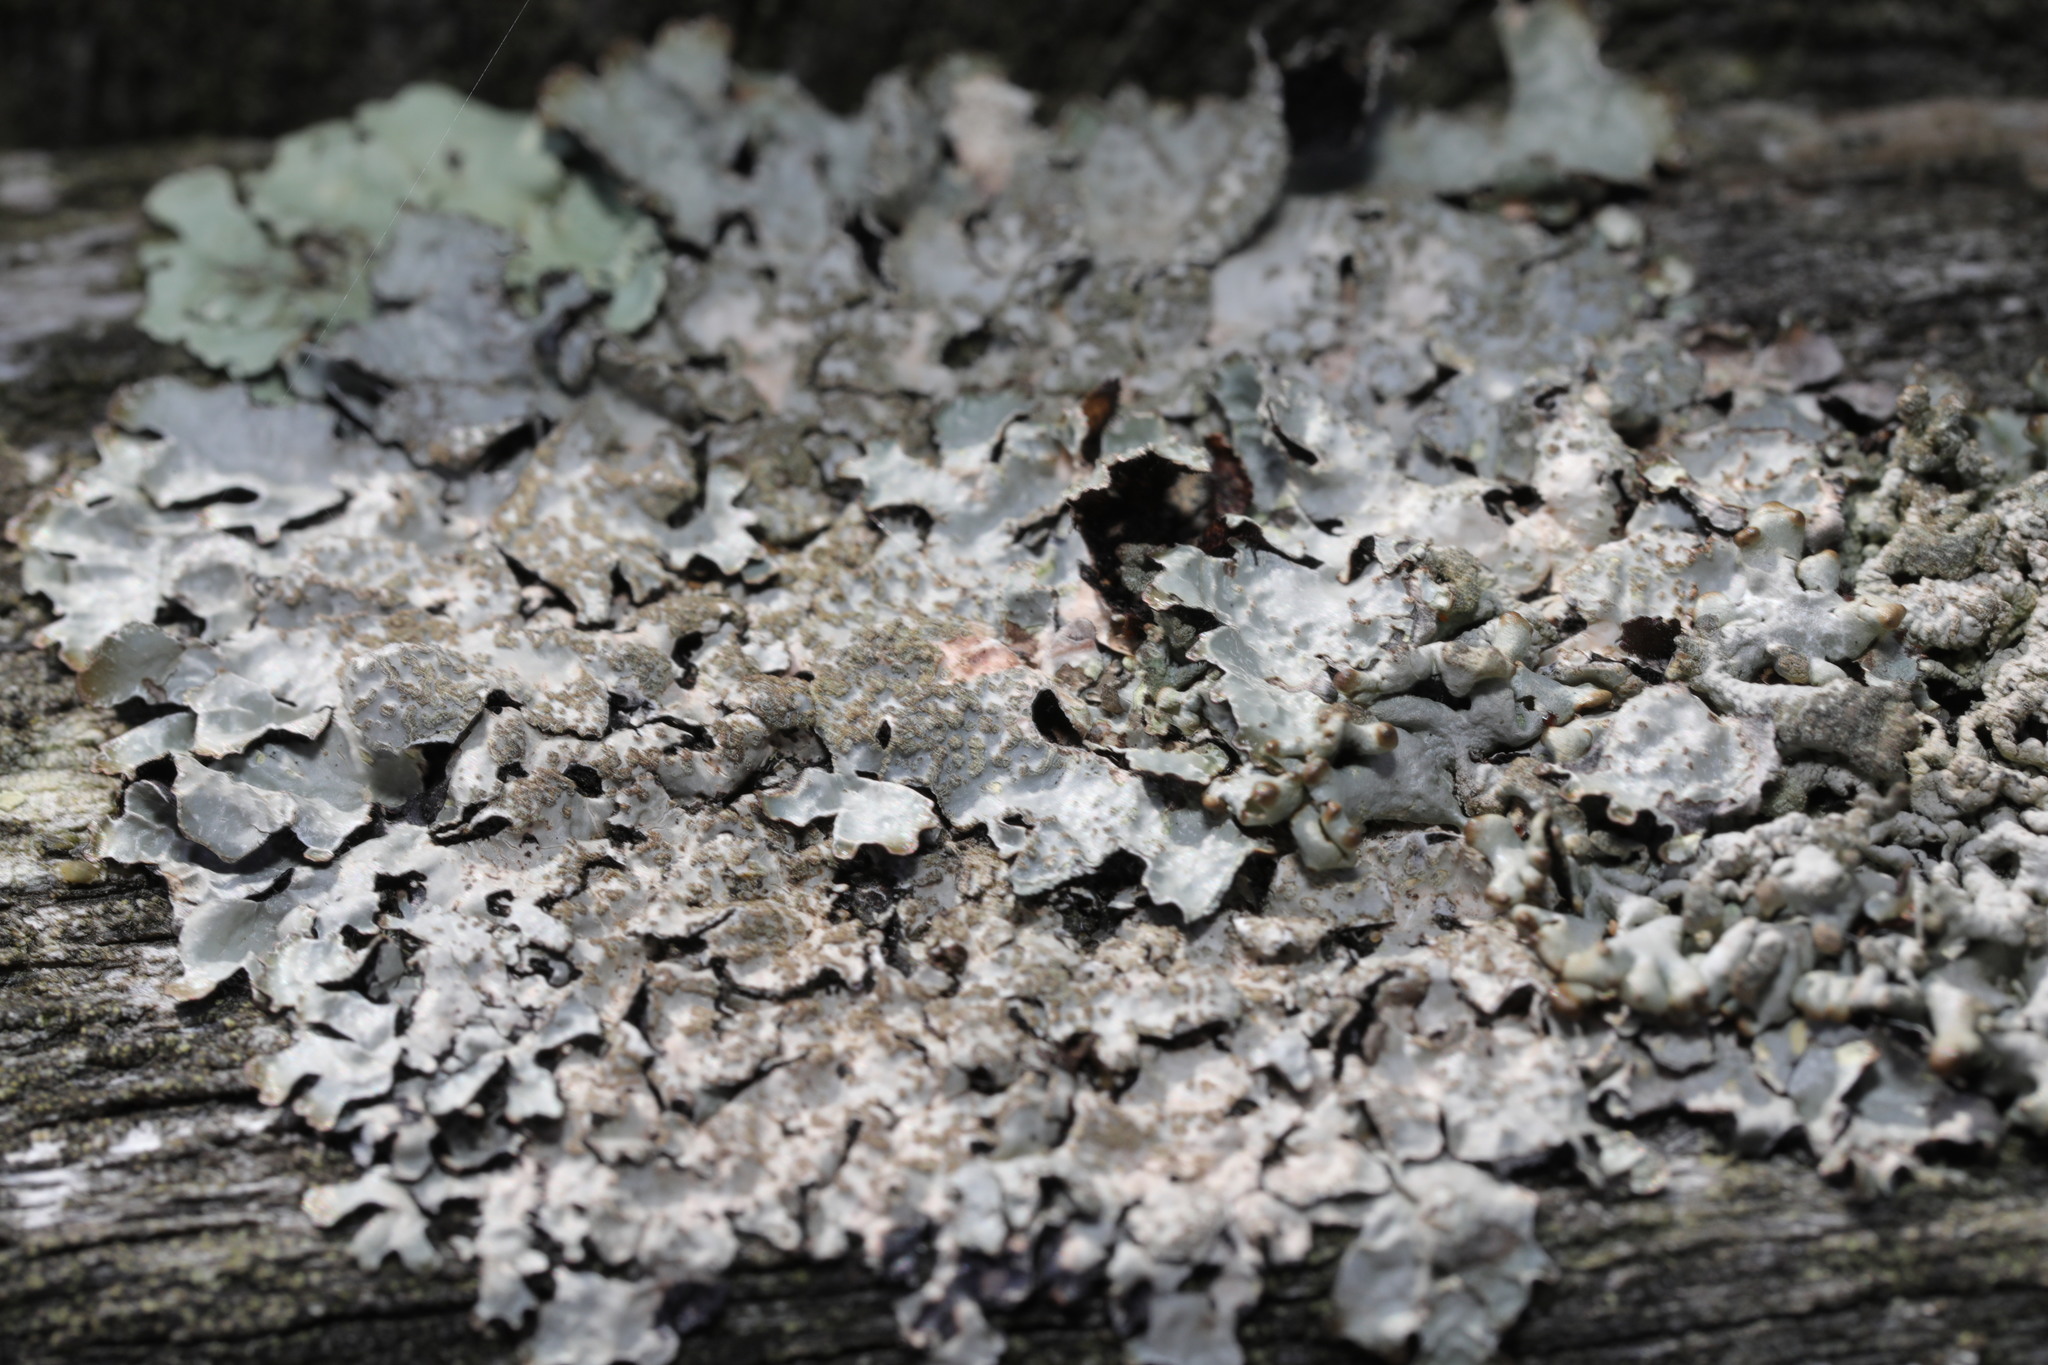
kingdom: Fungi
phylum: Ascomycota
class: Lecanoromycetes
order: Lecanorales
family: Parmeliaceae
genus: Parmelia
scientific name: Parmelia sulcata
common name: Netted shield lichen
